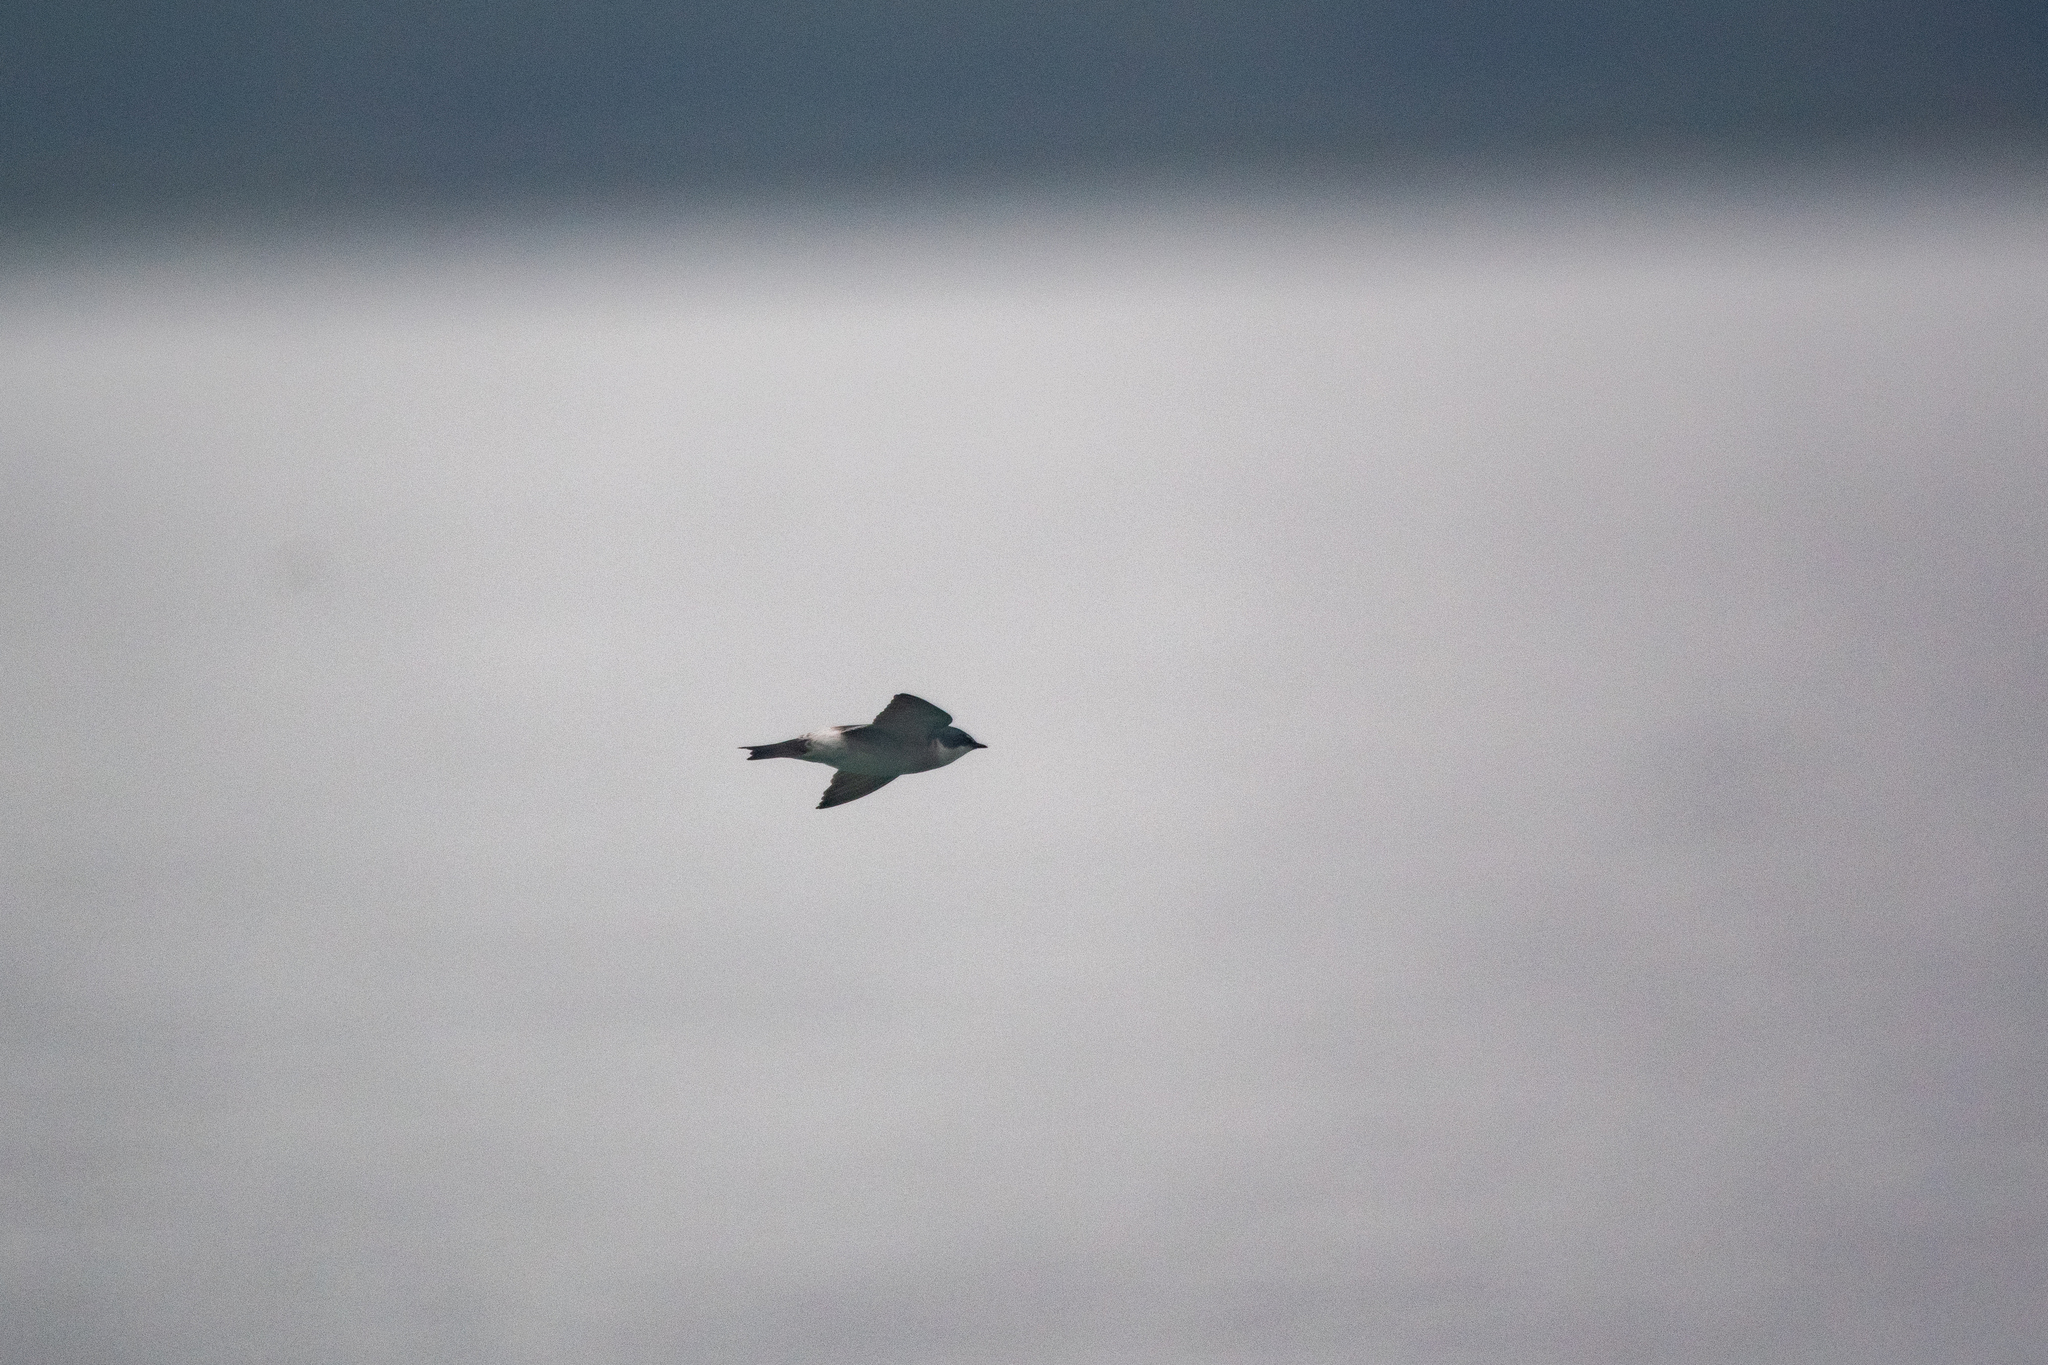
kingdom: Animalia
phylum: Chordata
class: Aves
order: Passeriformes
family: Hirundinidae
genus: Tachycineta
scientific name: Tachycineta albilinea
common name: Mangrove swallow
